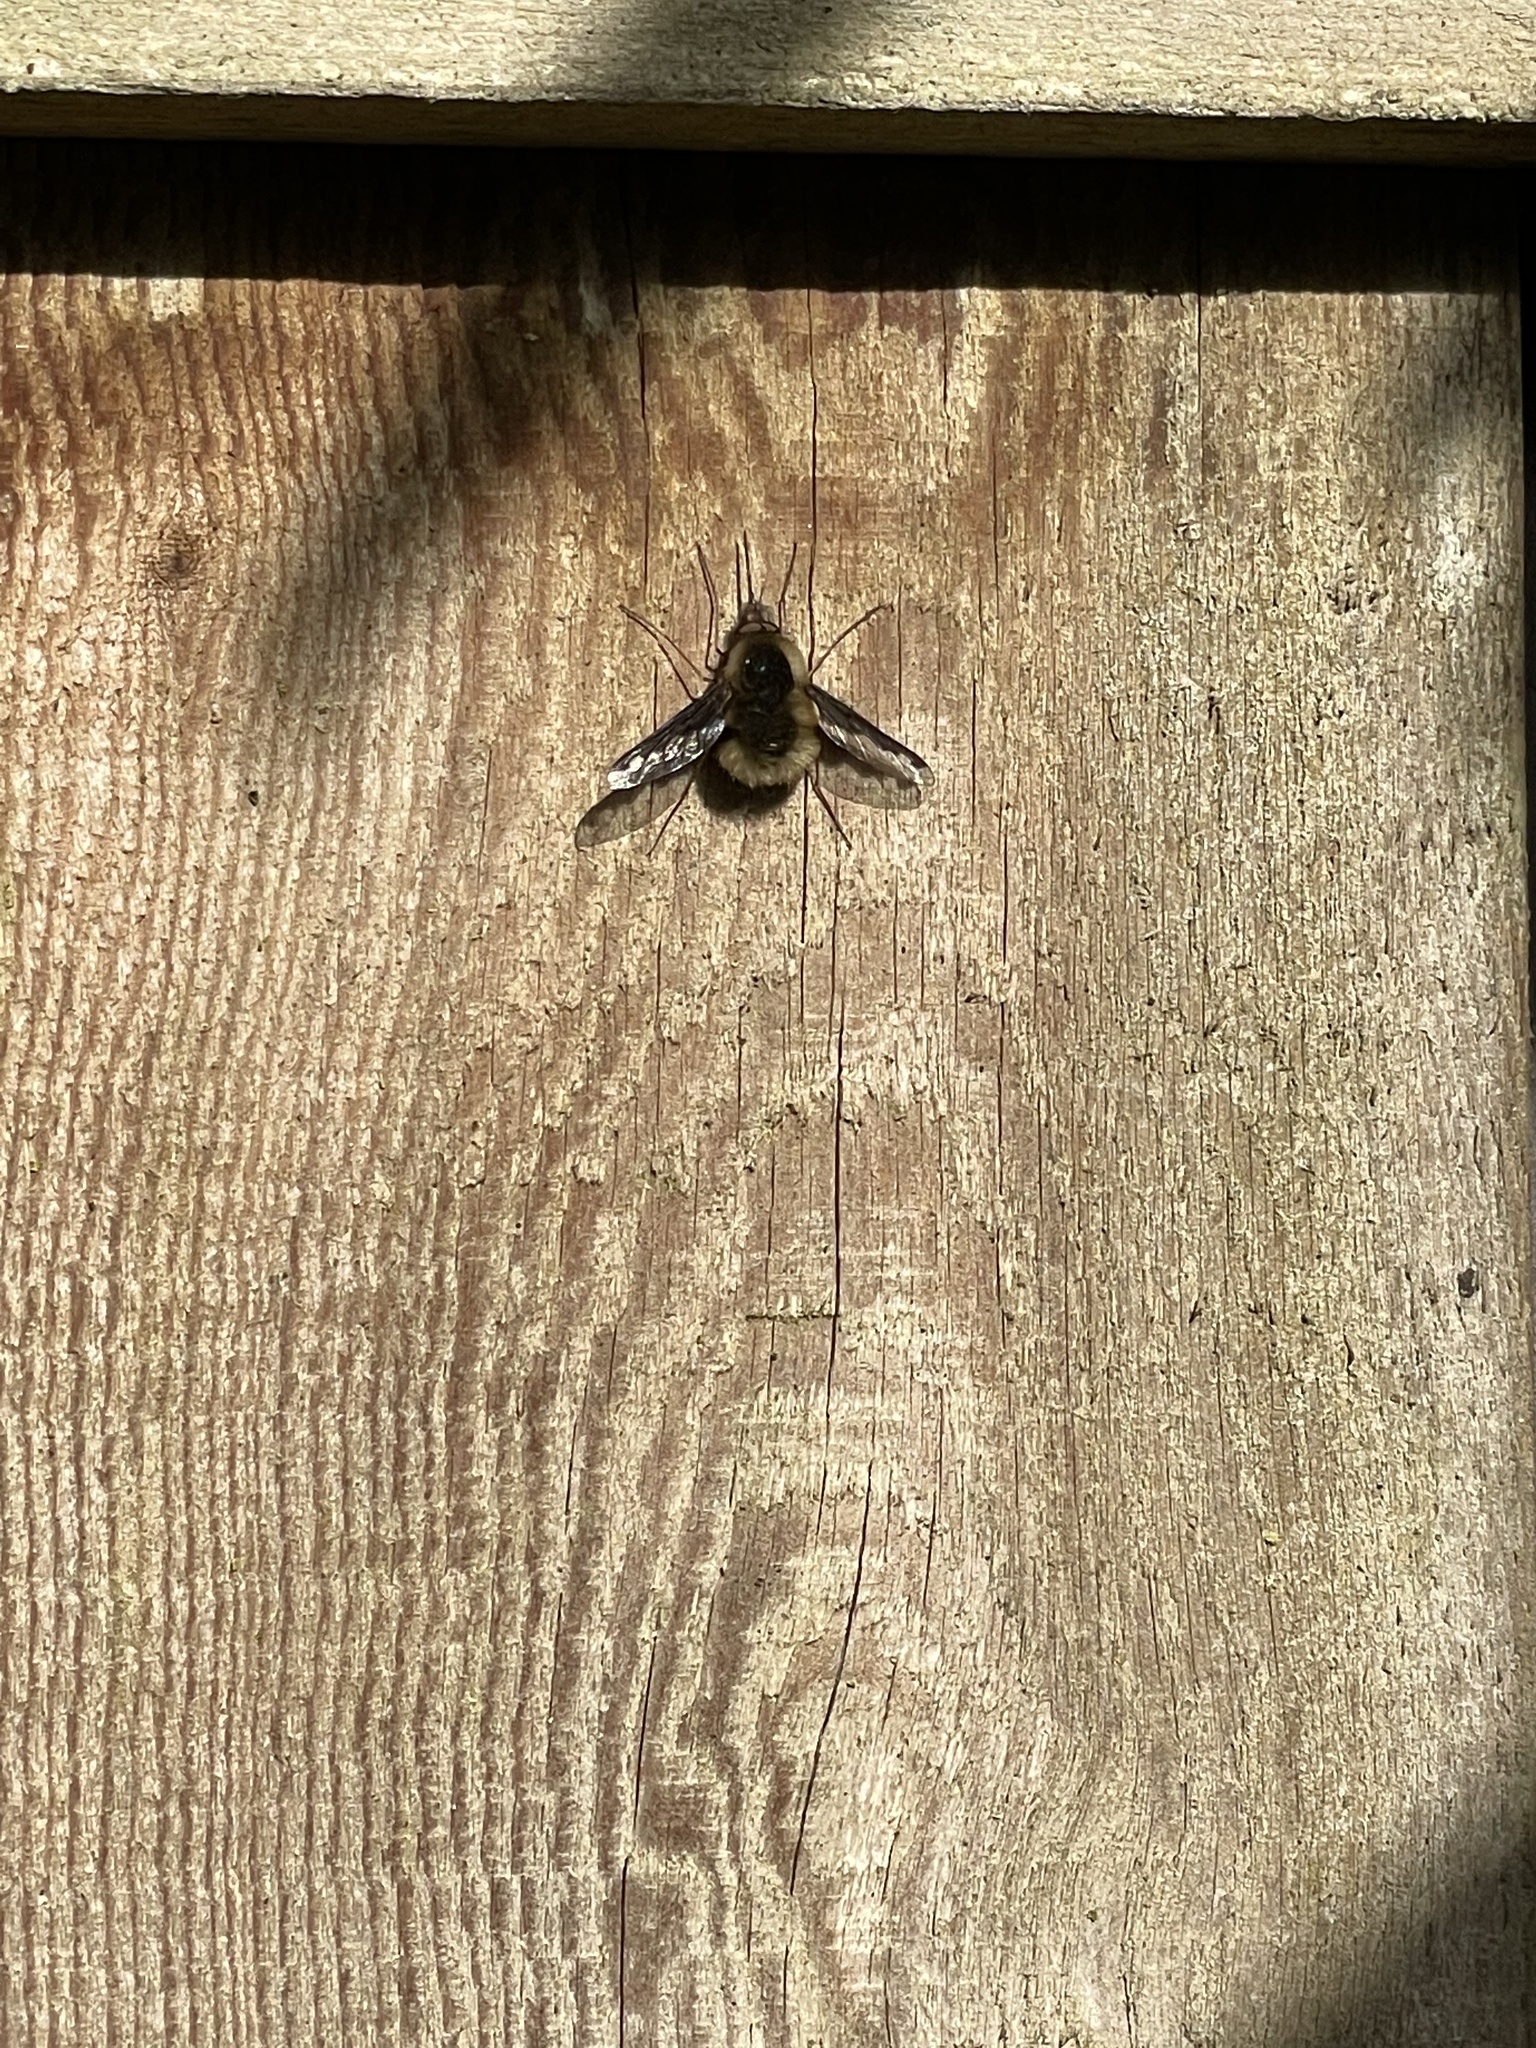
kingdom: Animalia
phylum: Arthropoda
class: Insecta
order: Diptera
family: Bombyliidae
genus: Bombylius
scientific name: Bombylius major
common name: Bee fly
